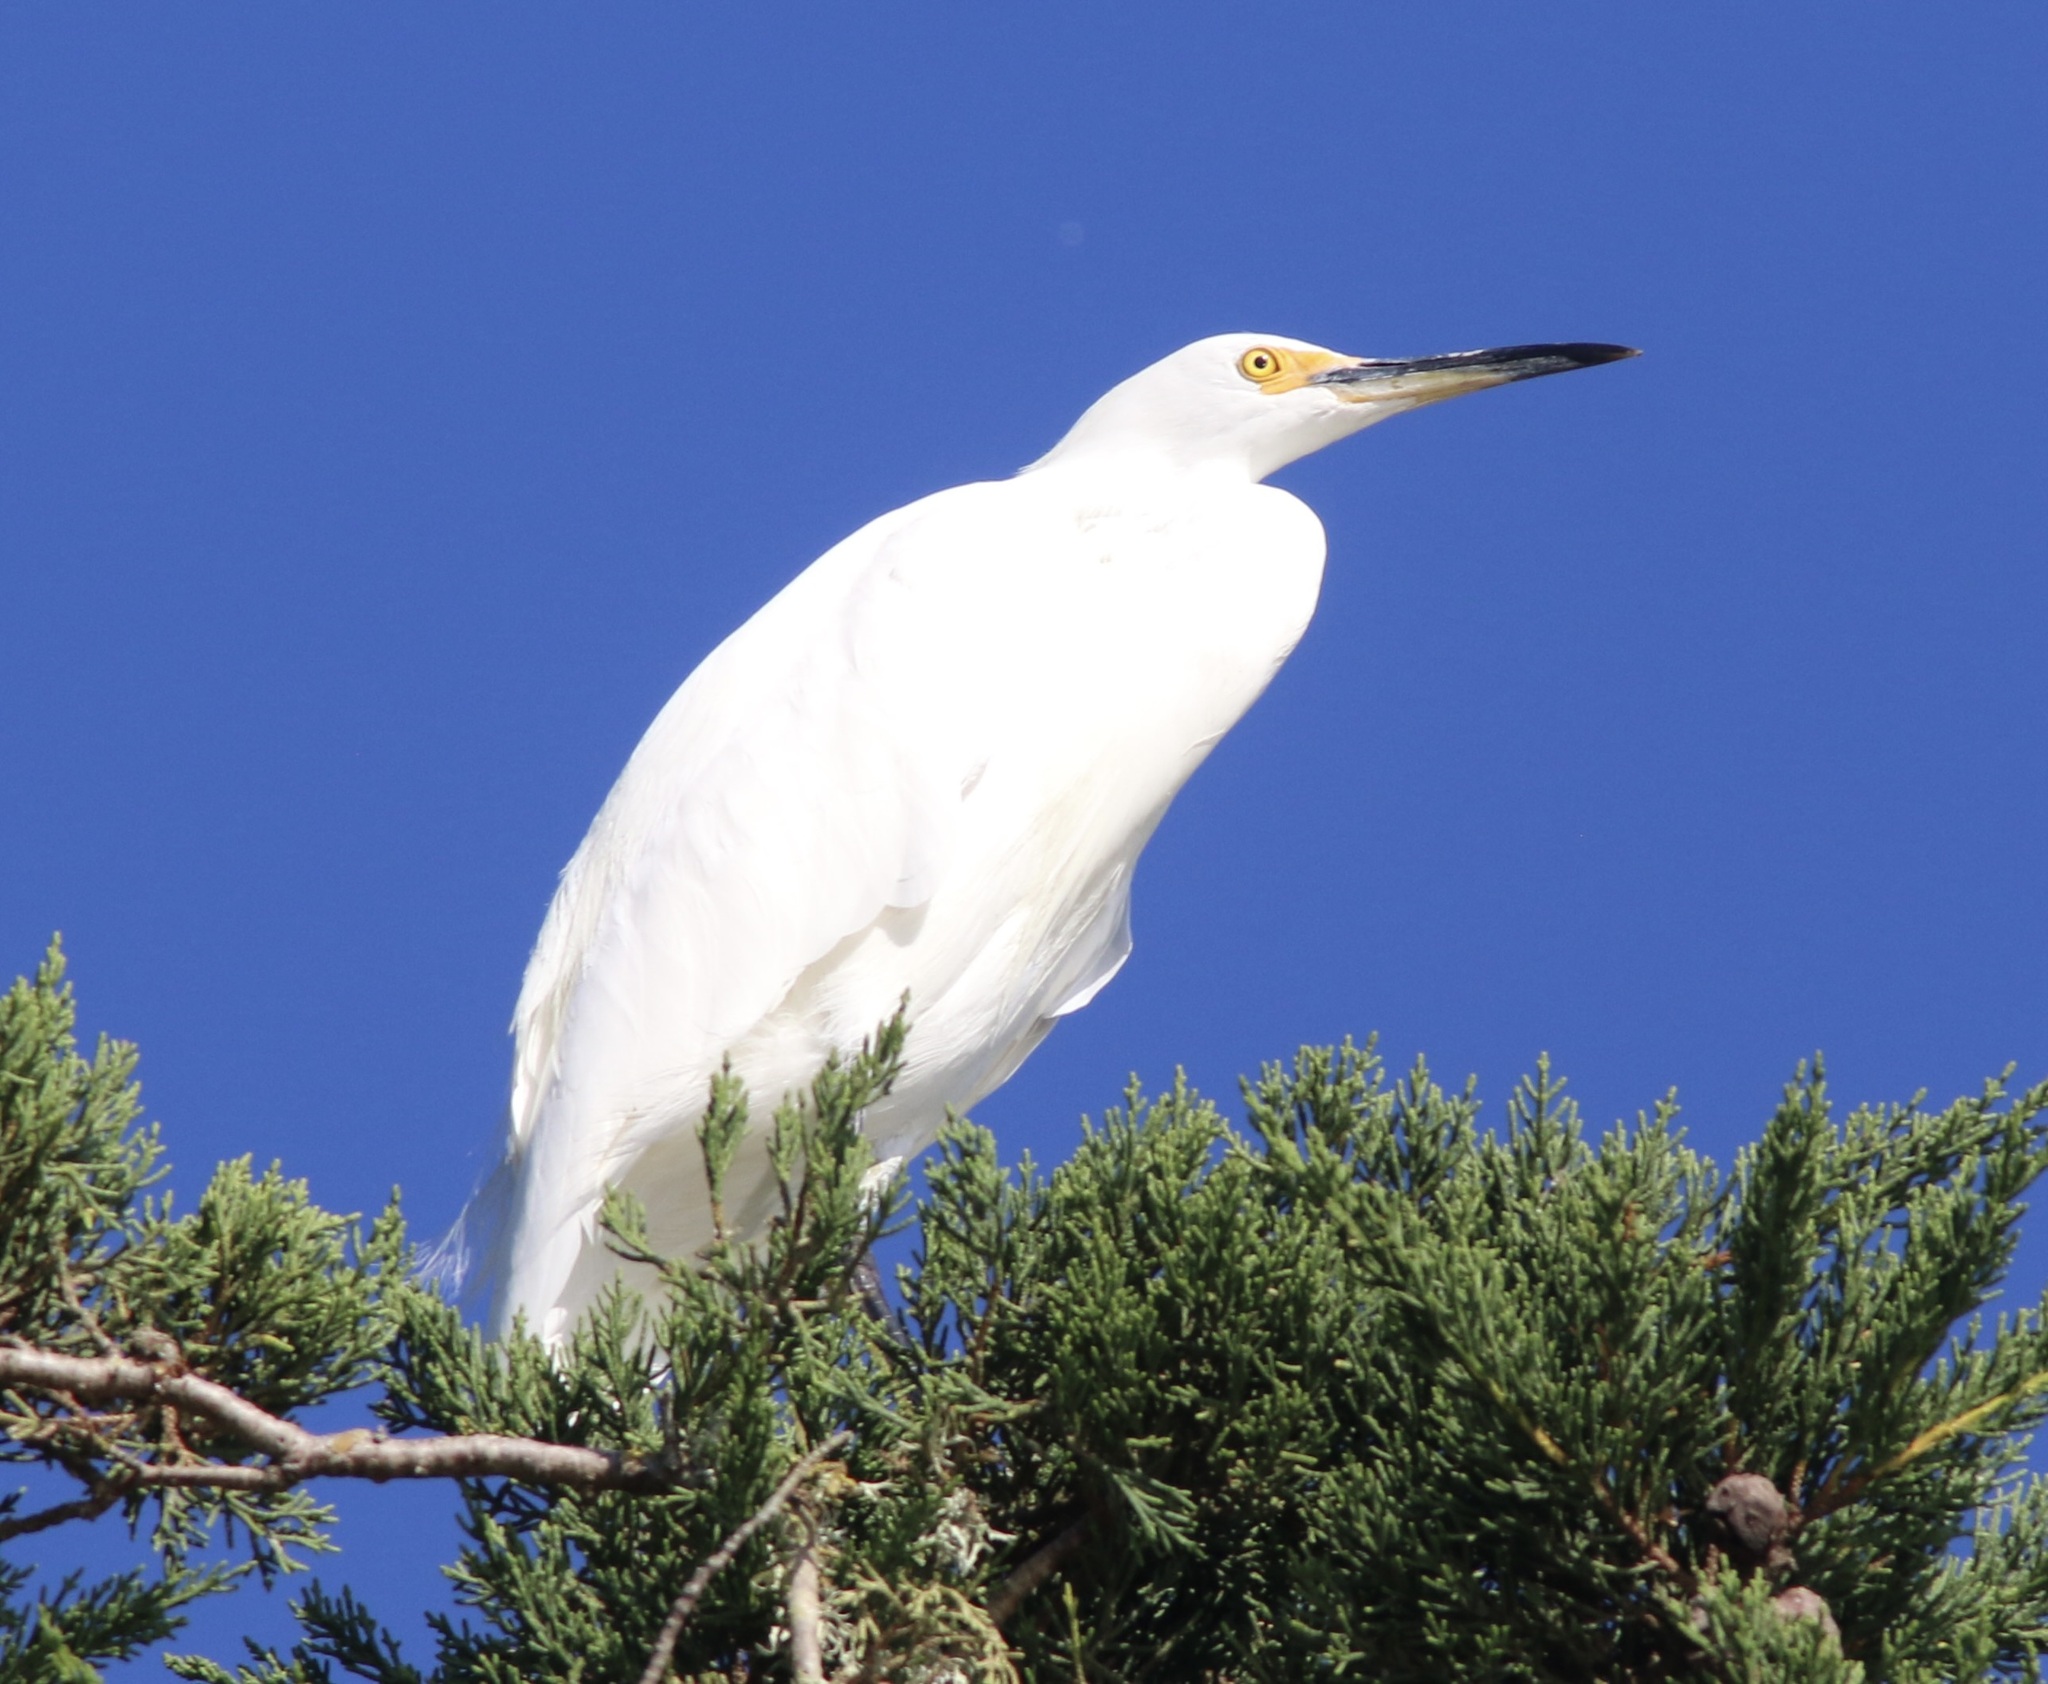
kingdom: Animalia
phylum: Chordata
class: Aves
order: Pelecaniformes
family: Ardeidae
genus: Egretta
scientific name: Egretta thula
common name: Snowy egret
